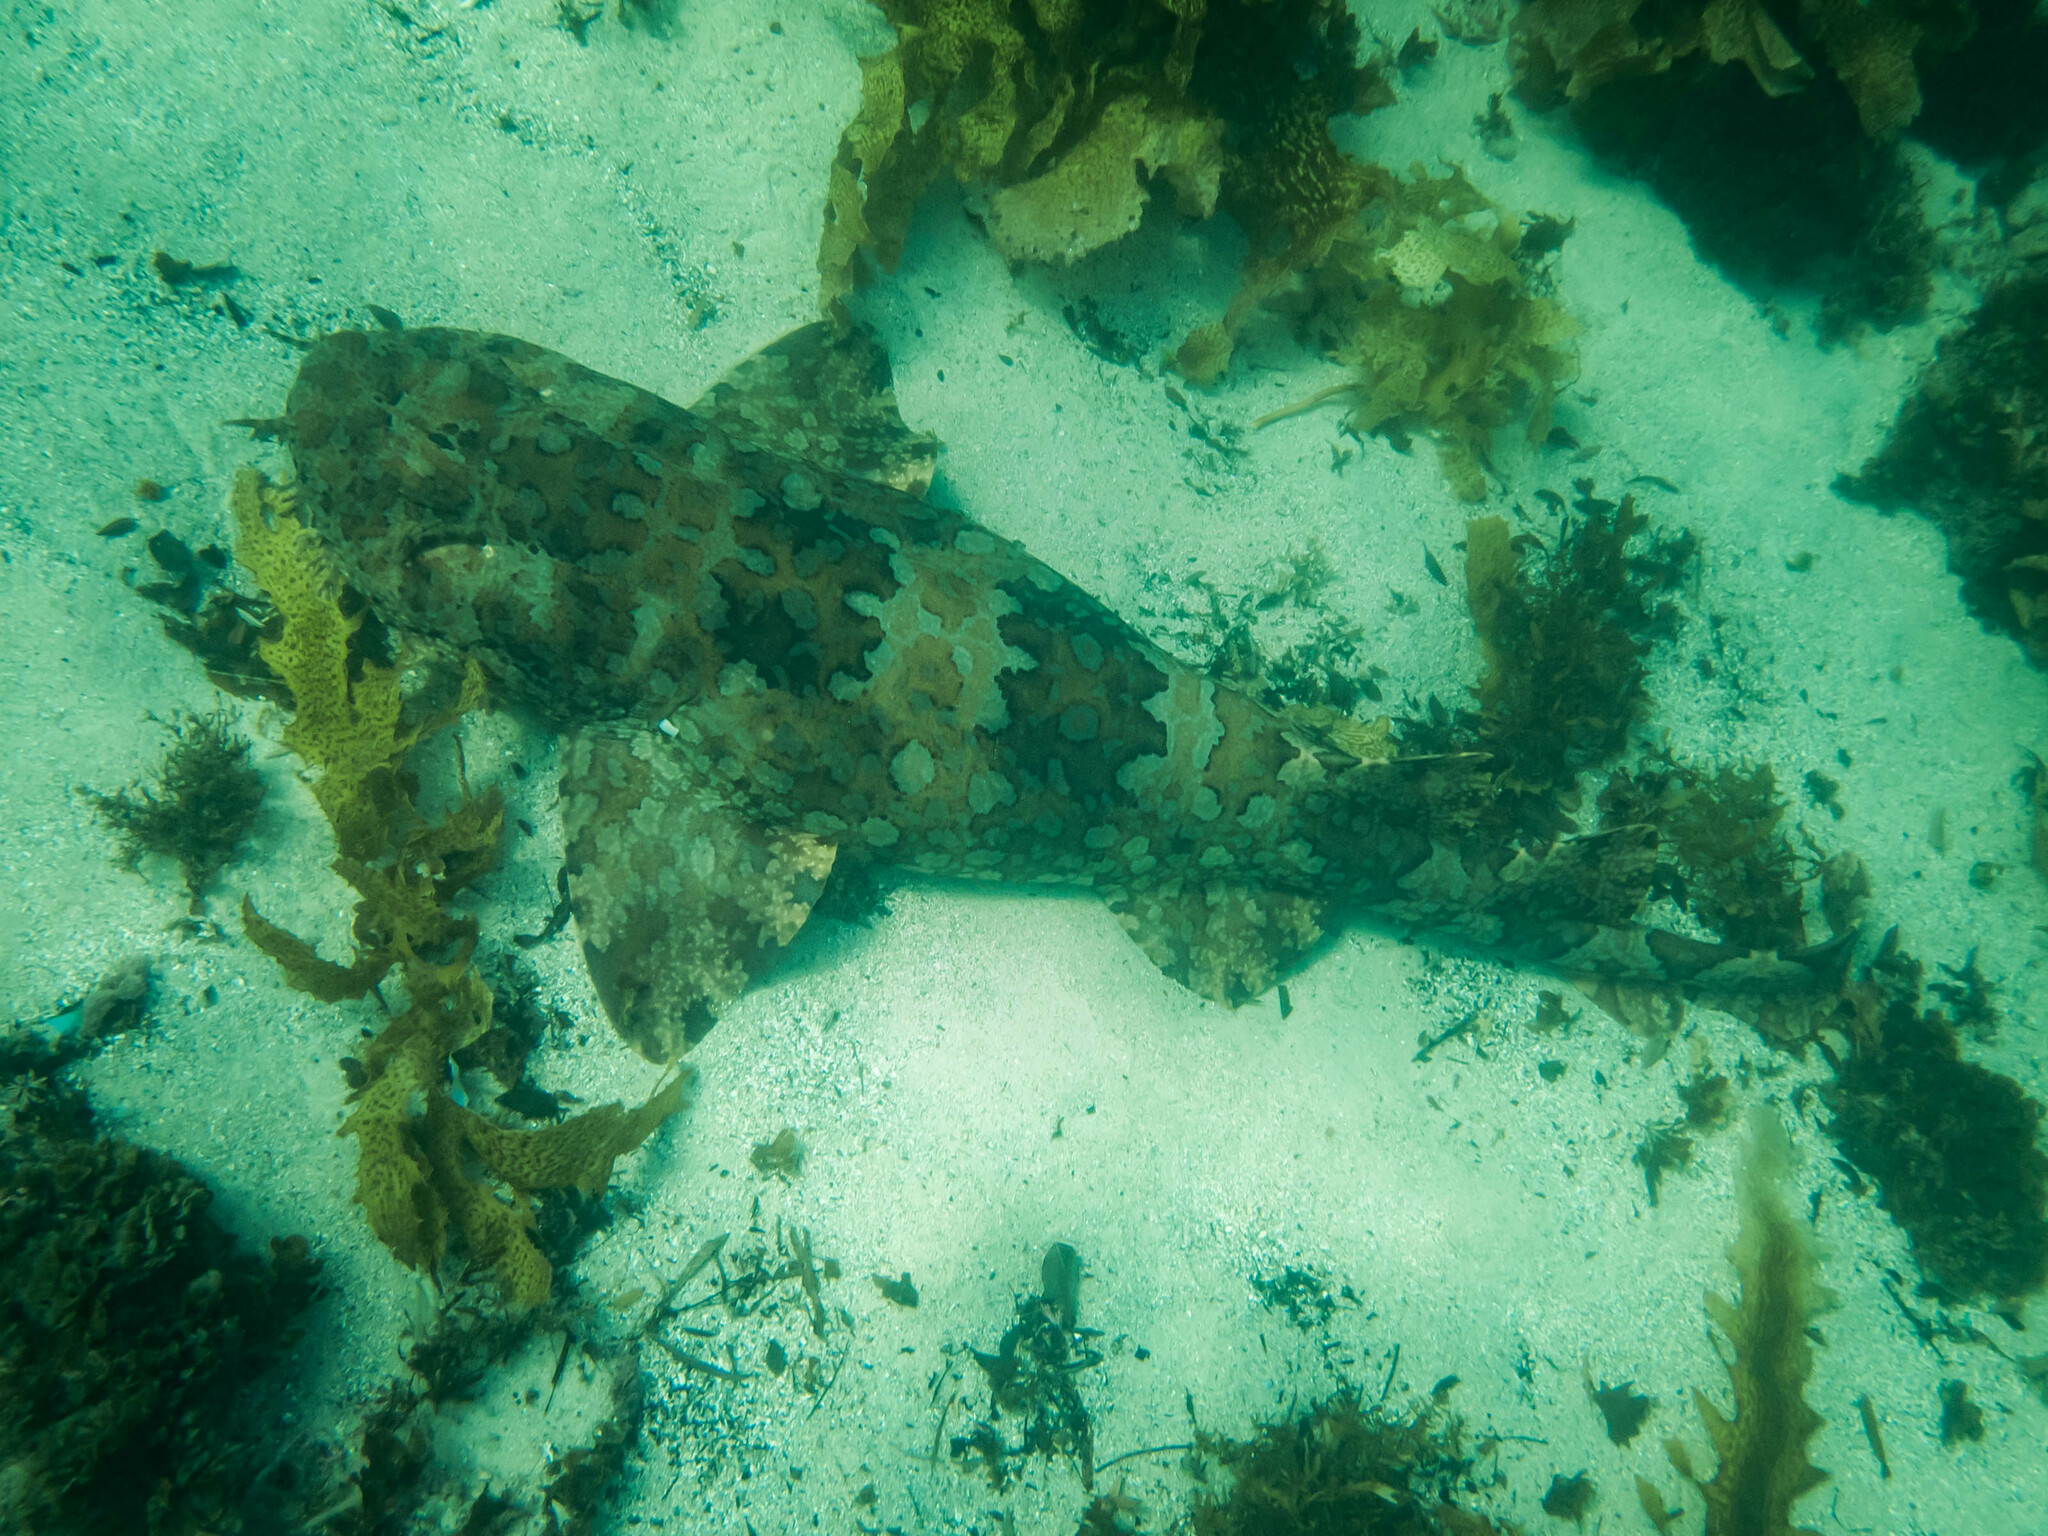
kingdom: Animalia
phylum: Chordata
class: Elasmobranchii
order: Orectolobiformes
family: Orectolobidae
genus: Orectolobus
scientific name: Orectolobus halei
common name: Banded wobbegong
